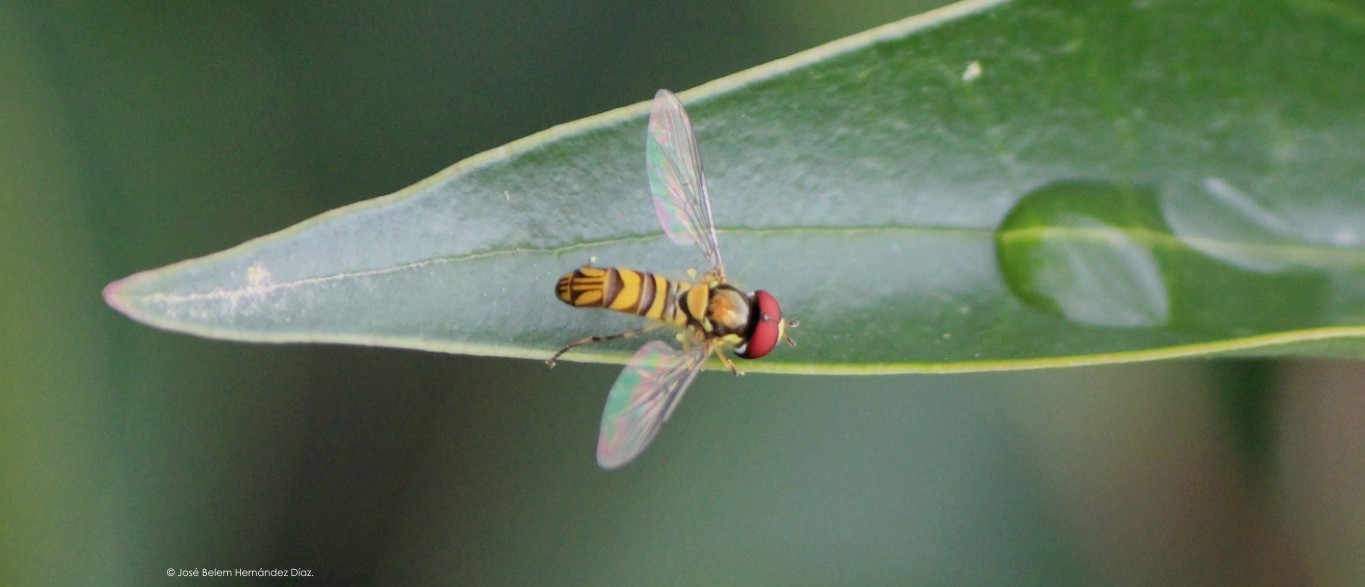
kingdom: Animalia
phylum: Arthropoda
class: Insecta
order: Diptera
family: Syrphidae
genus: Allograpta
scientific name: Allograpta obliqua
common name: Common oblique syrphid
